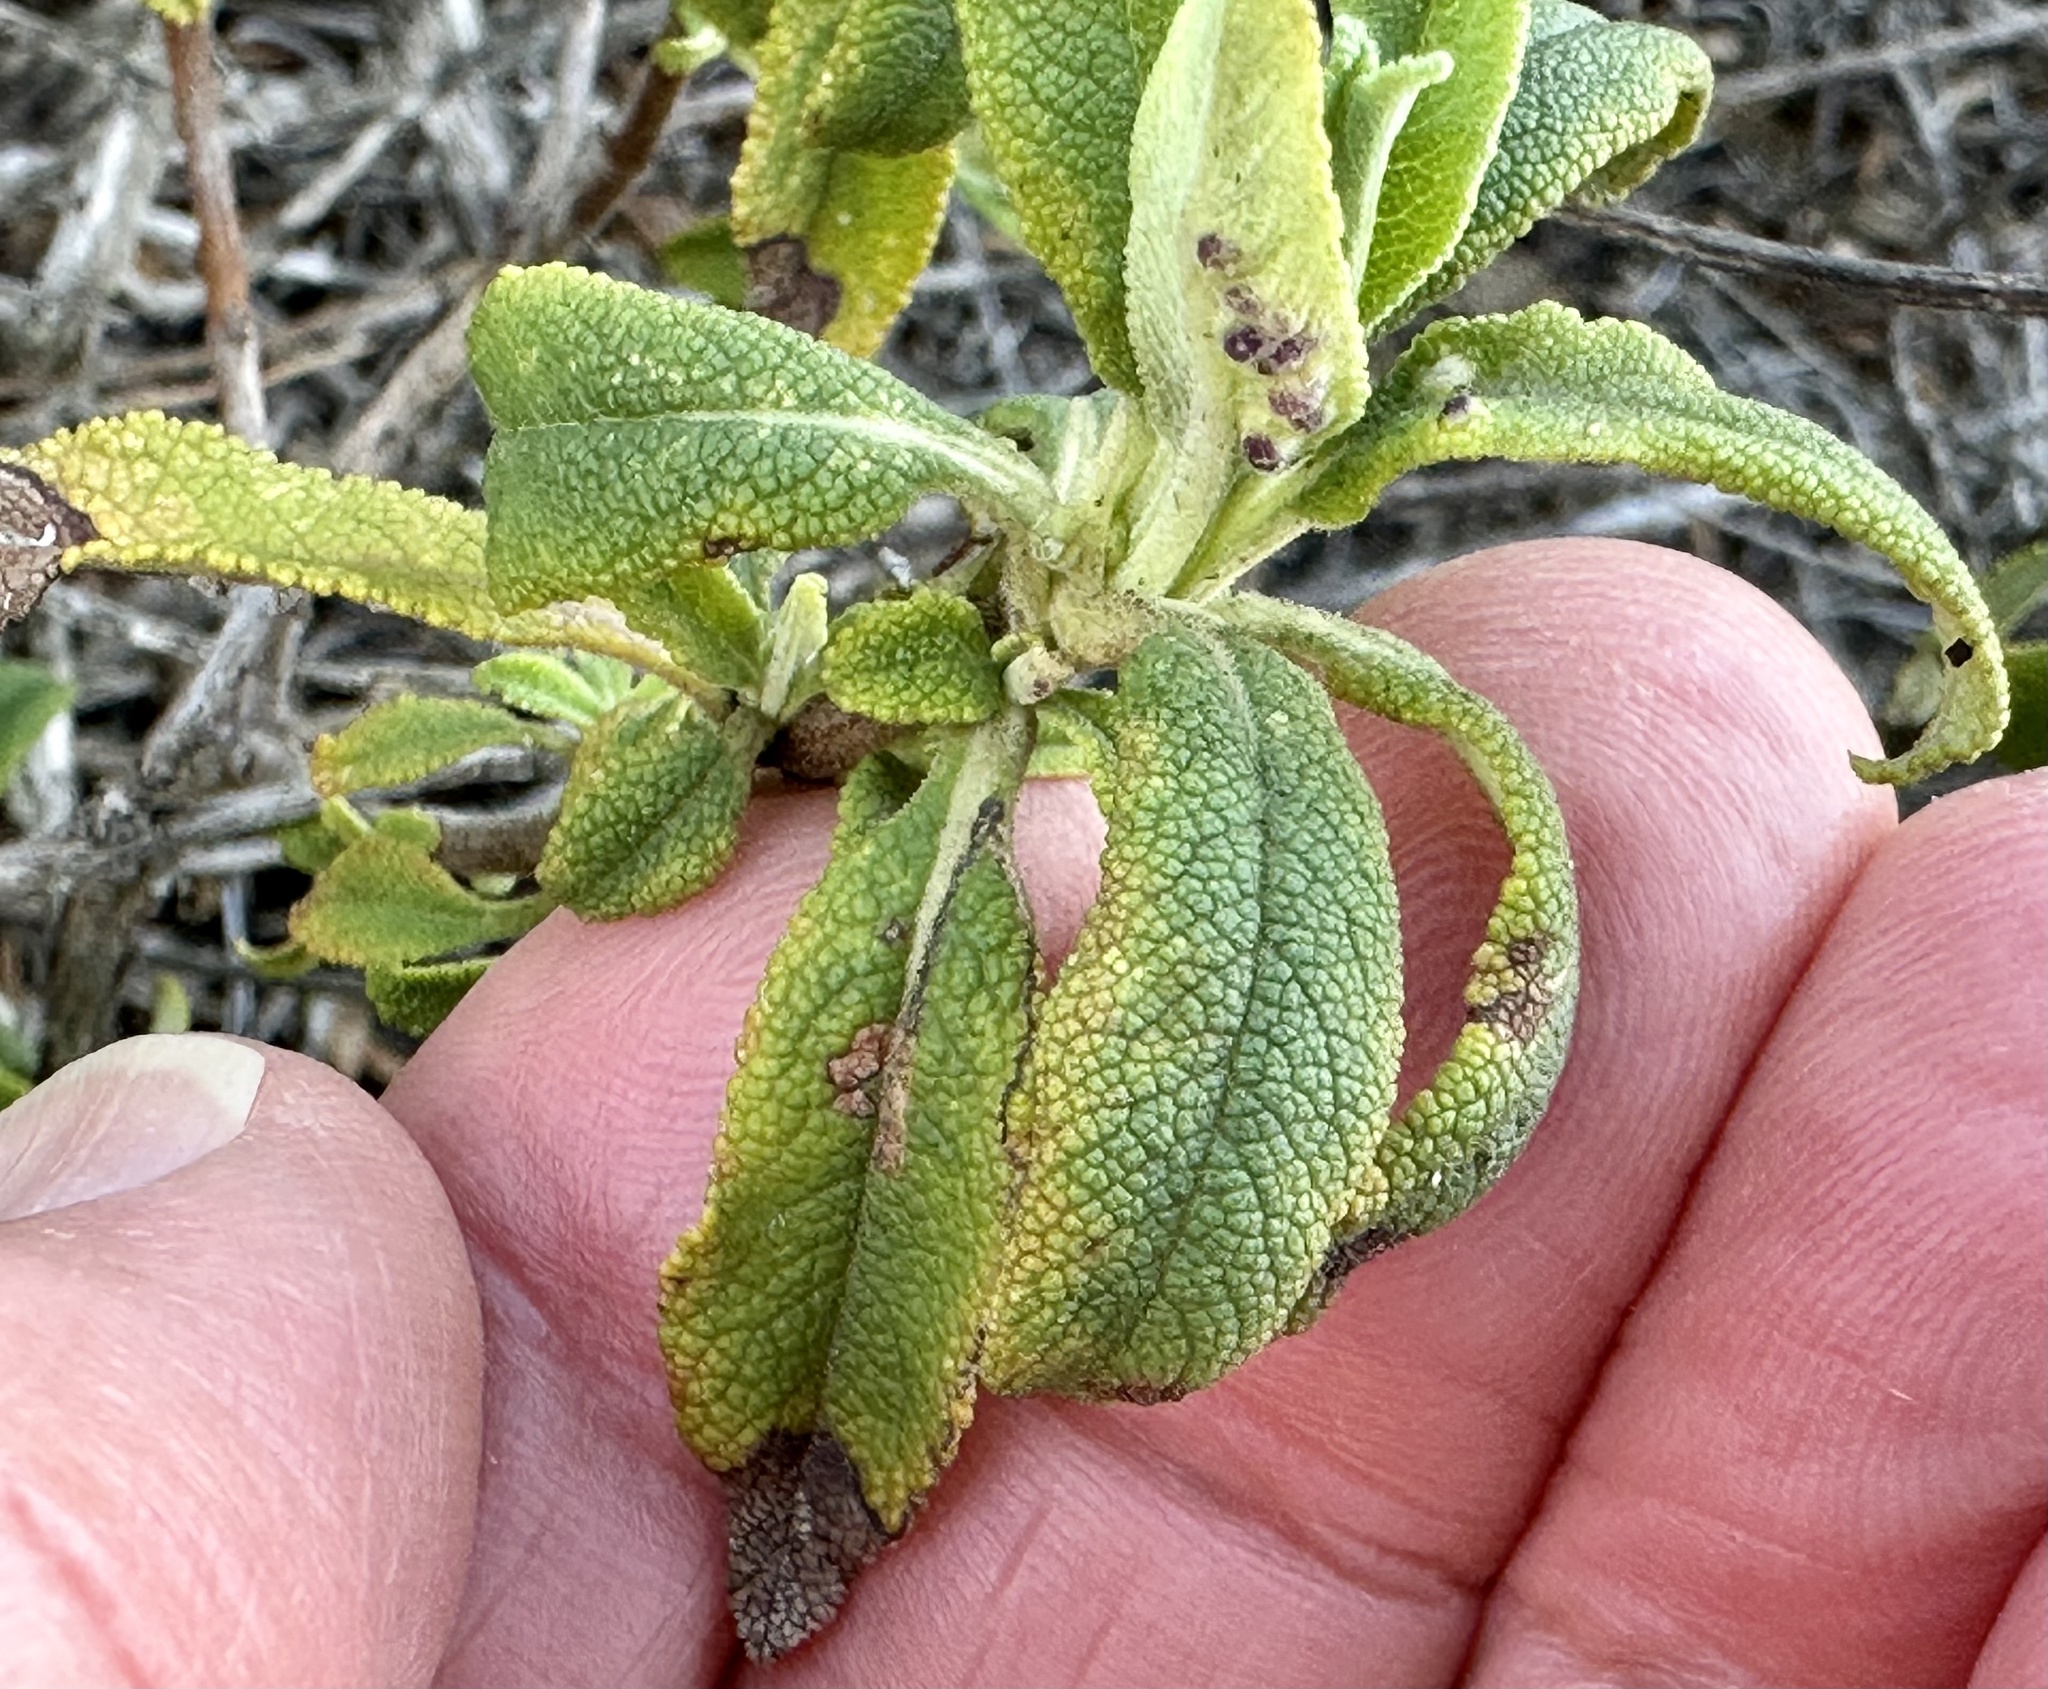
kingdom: Plantae
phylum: Tracheophyta
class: Magnoliopsida
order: Lamiales
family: Lamiaceae
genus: Salvia
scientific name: Salvia mellifera
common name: Black sage
